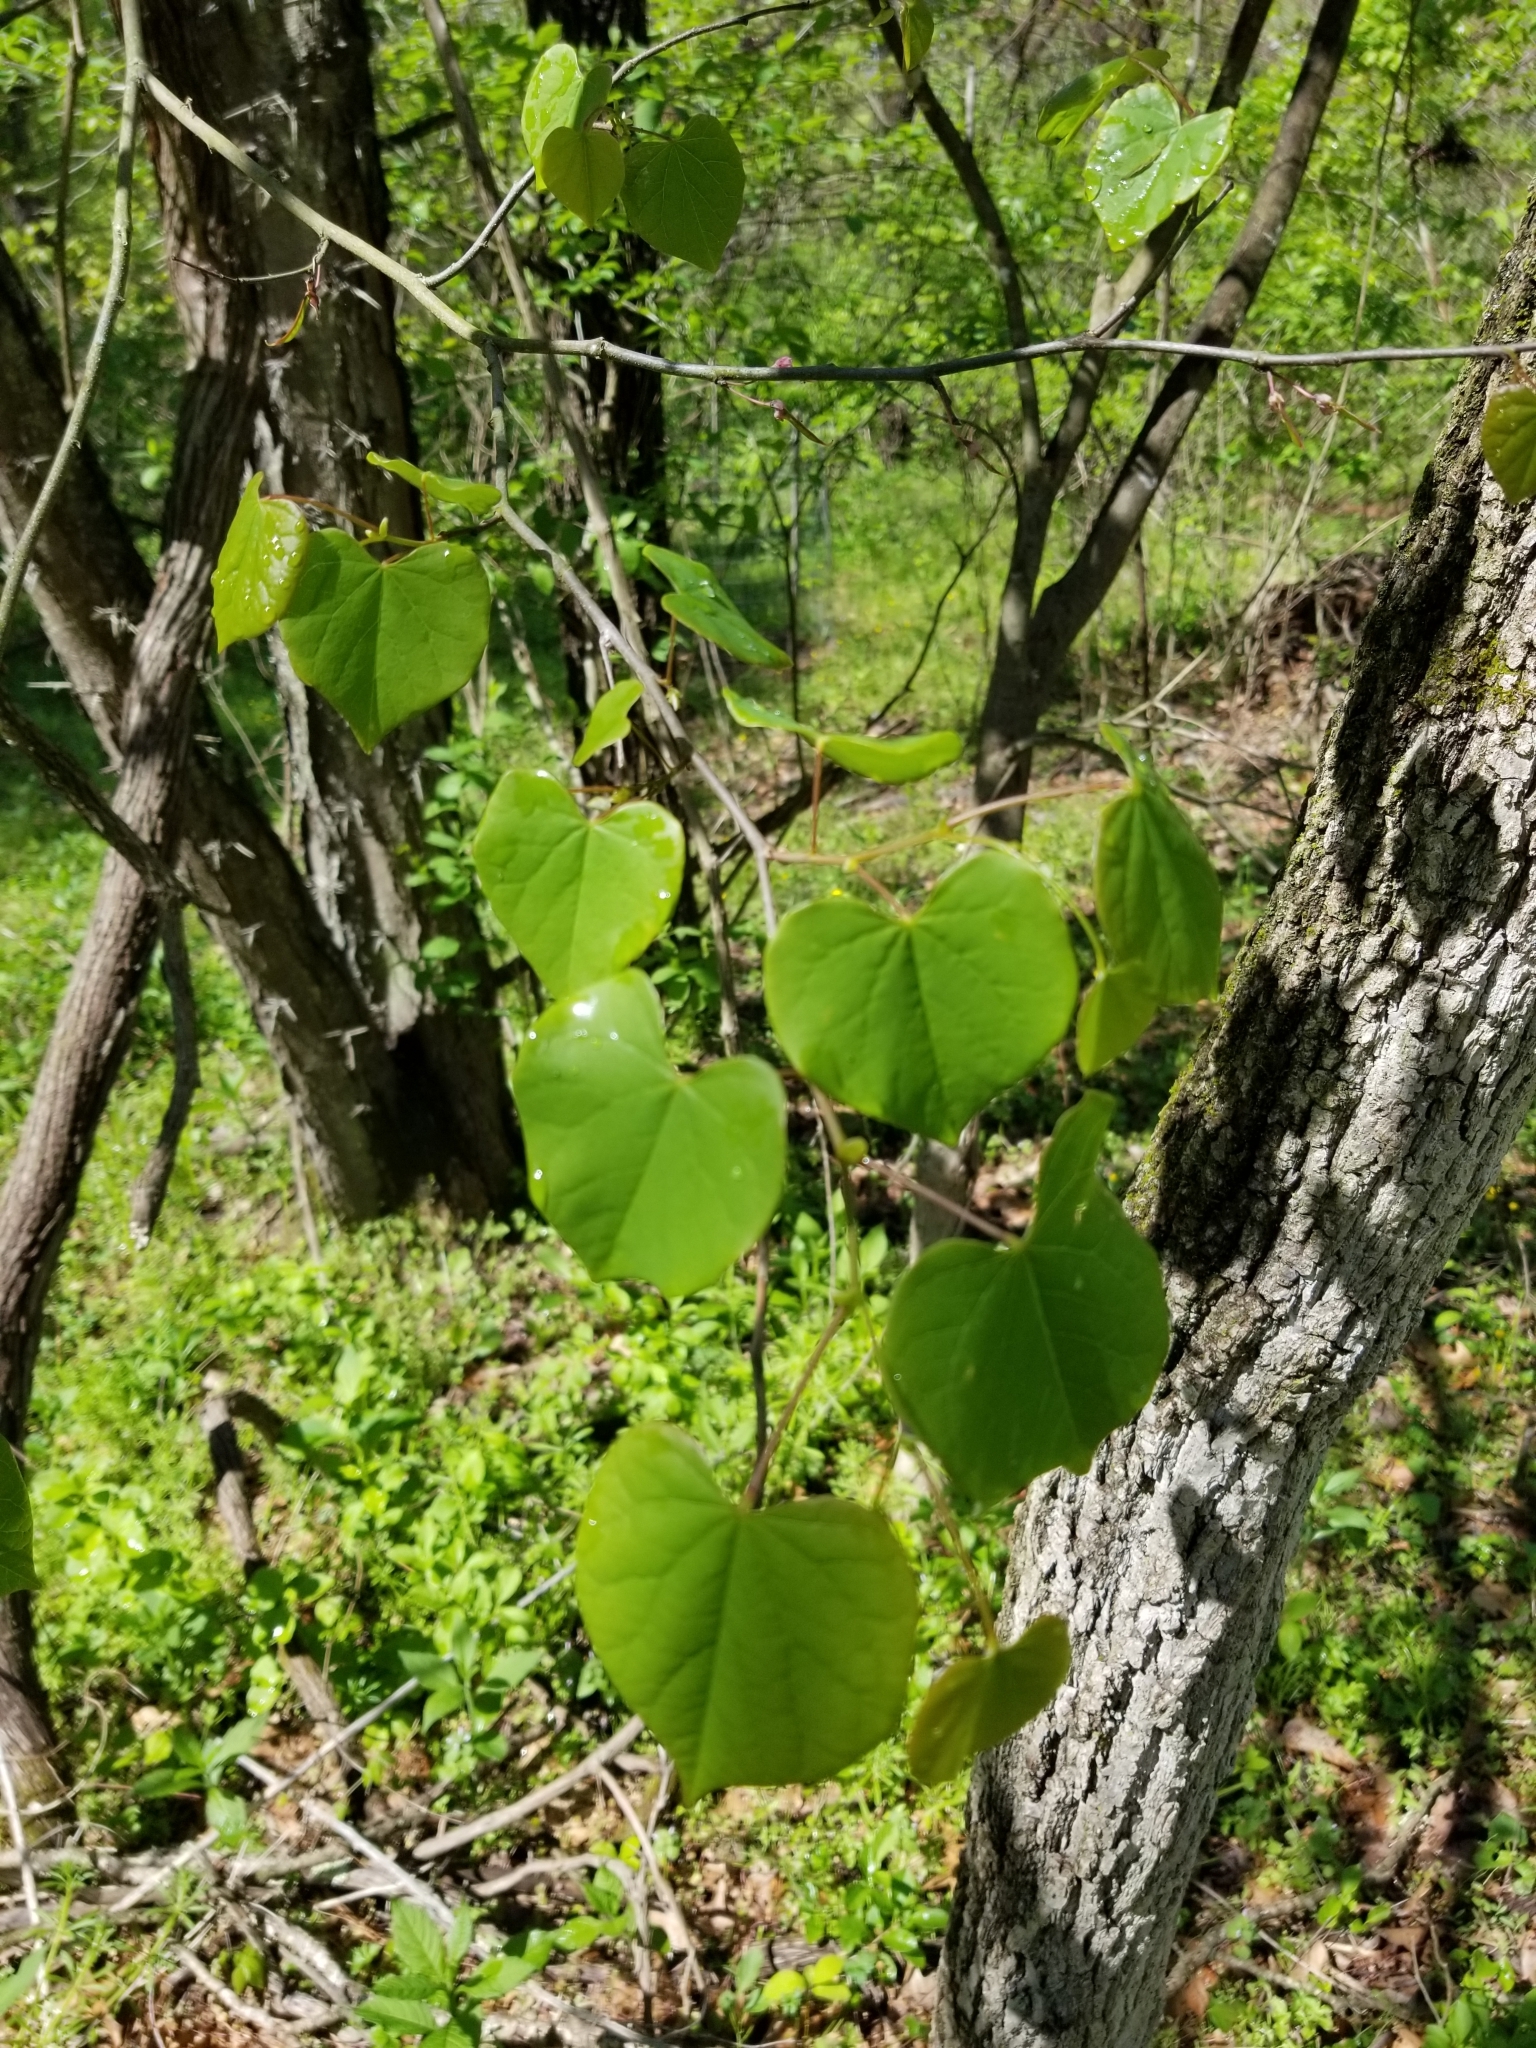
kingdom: Plantae
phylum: Tracheophyta
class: Magnoliopsida
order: Fabales
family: Fabaceae
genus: Cercis
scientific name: Cercis canadensis
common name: Eastern redbud
